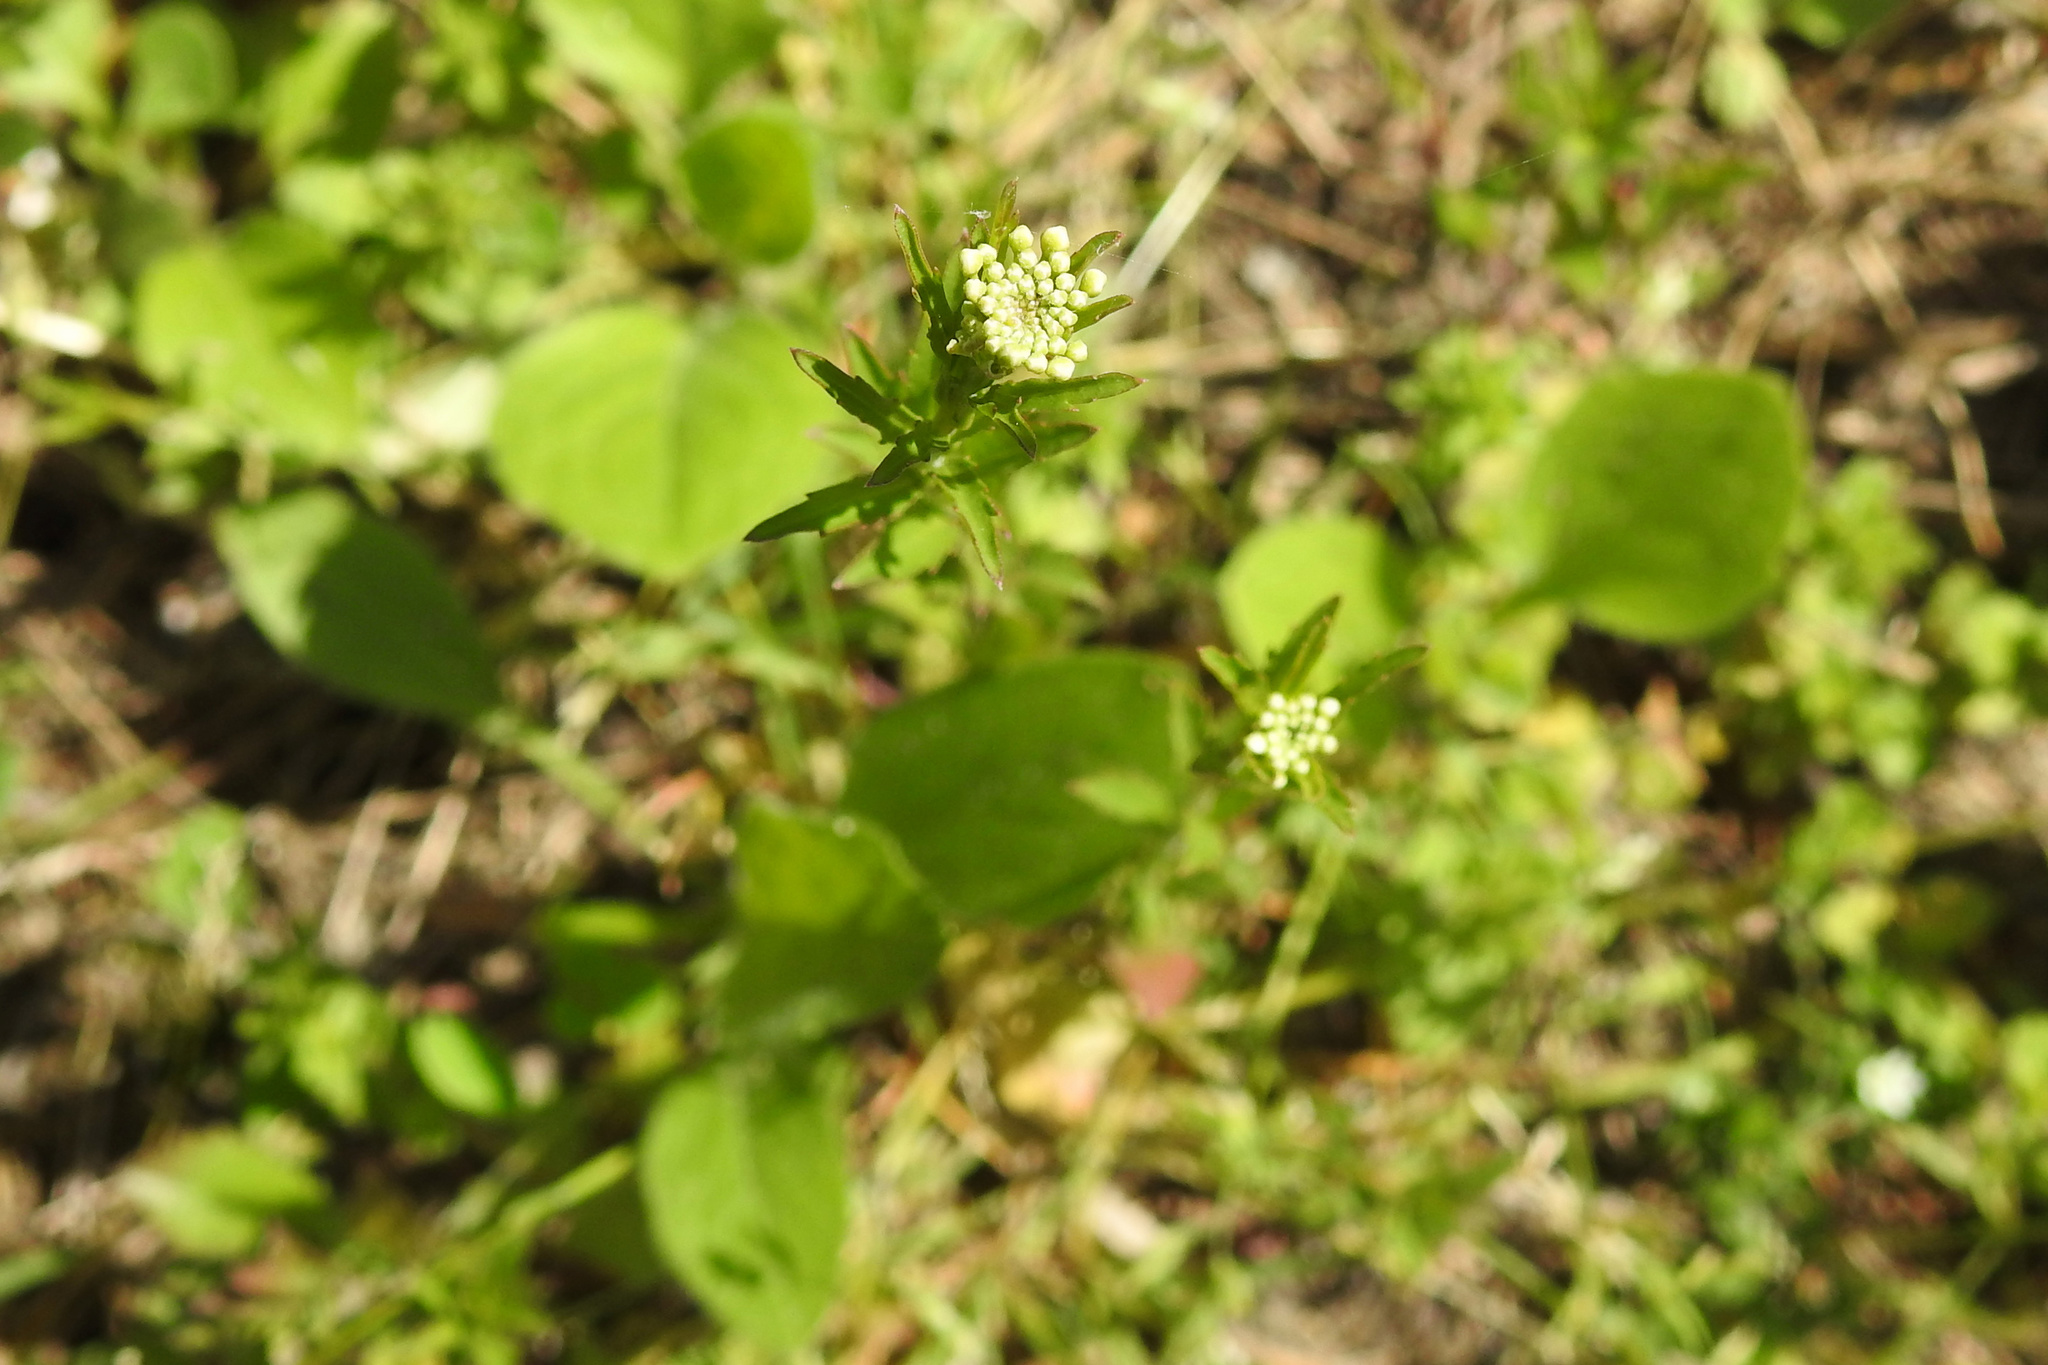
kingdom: Plantae
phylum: Tracheophyta
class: Magnoliopsida
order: Brassicales
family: Brassicaceae
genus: Thlaspi
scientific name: Thlaspi arvense
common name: Field pennycress
